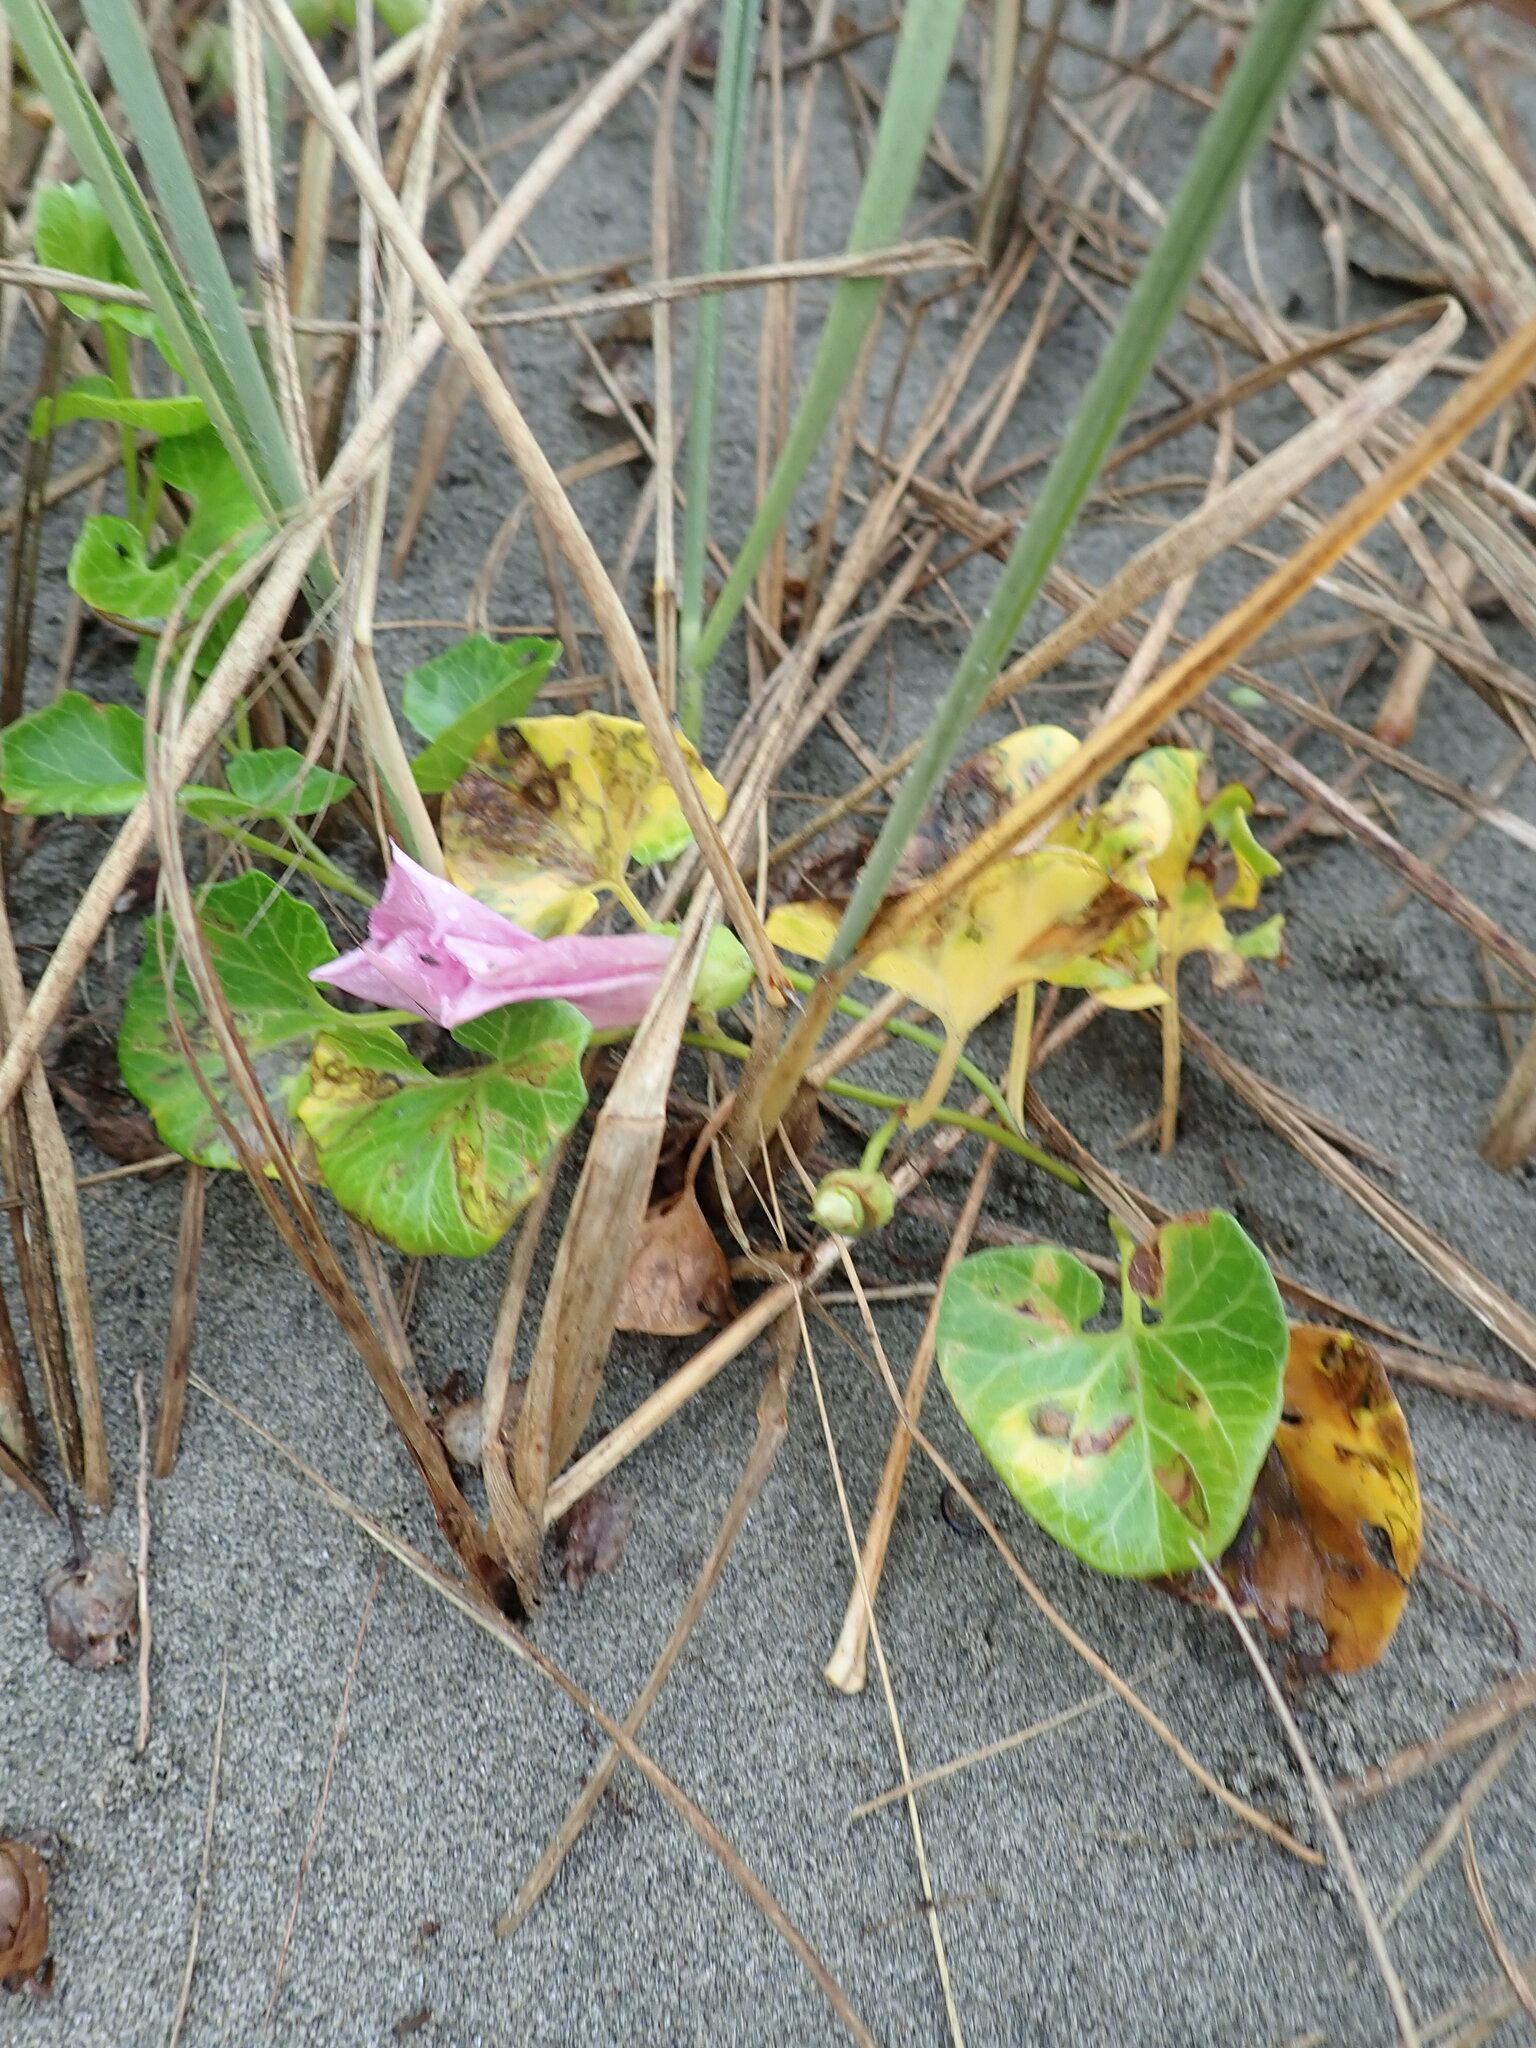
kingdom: Plantae
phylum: Tracheophyta
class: Magnoliopsida
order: Solanales
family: Convolvulaceae
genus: Calystegia
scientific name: Calystegia soldanella
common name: Sea bindweed
